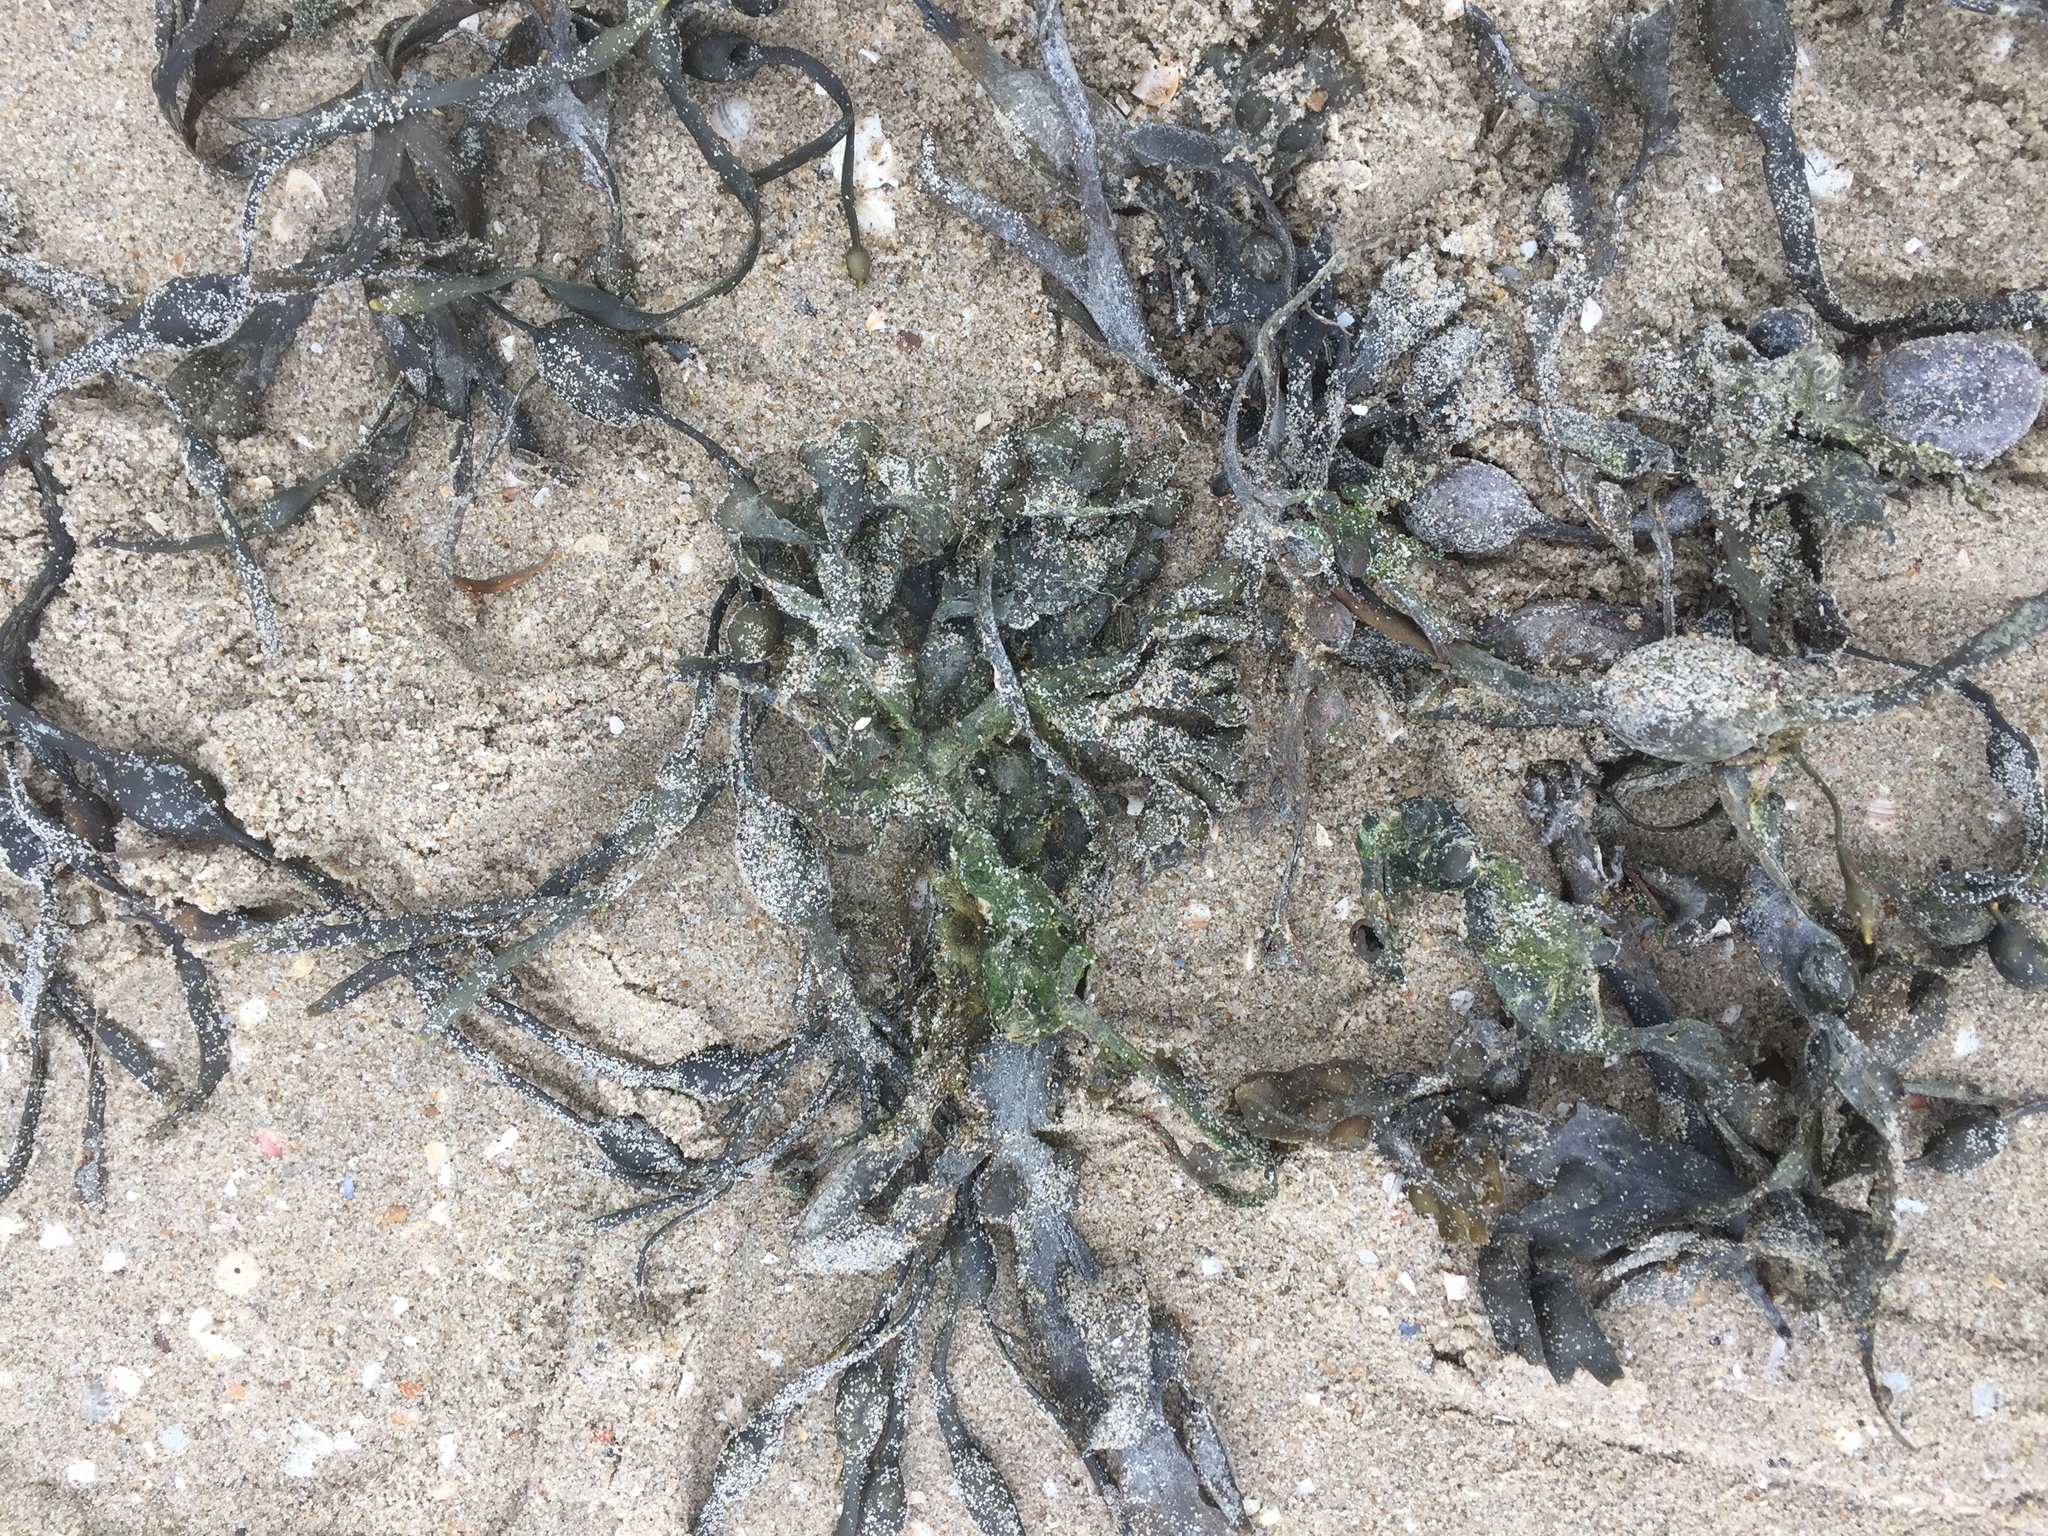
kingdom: Chromista
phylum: Ochrophyta
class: Phaeophyceae
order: Fucales
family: Fucaceae
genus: Fucus
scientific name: Fucus vesiculosus
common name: Bladder wrack
